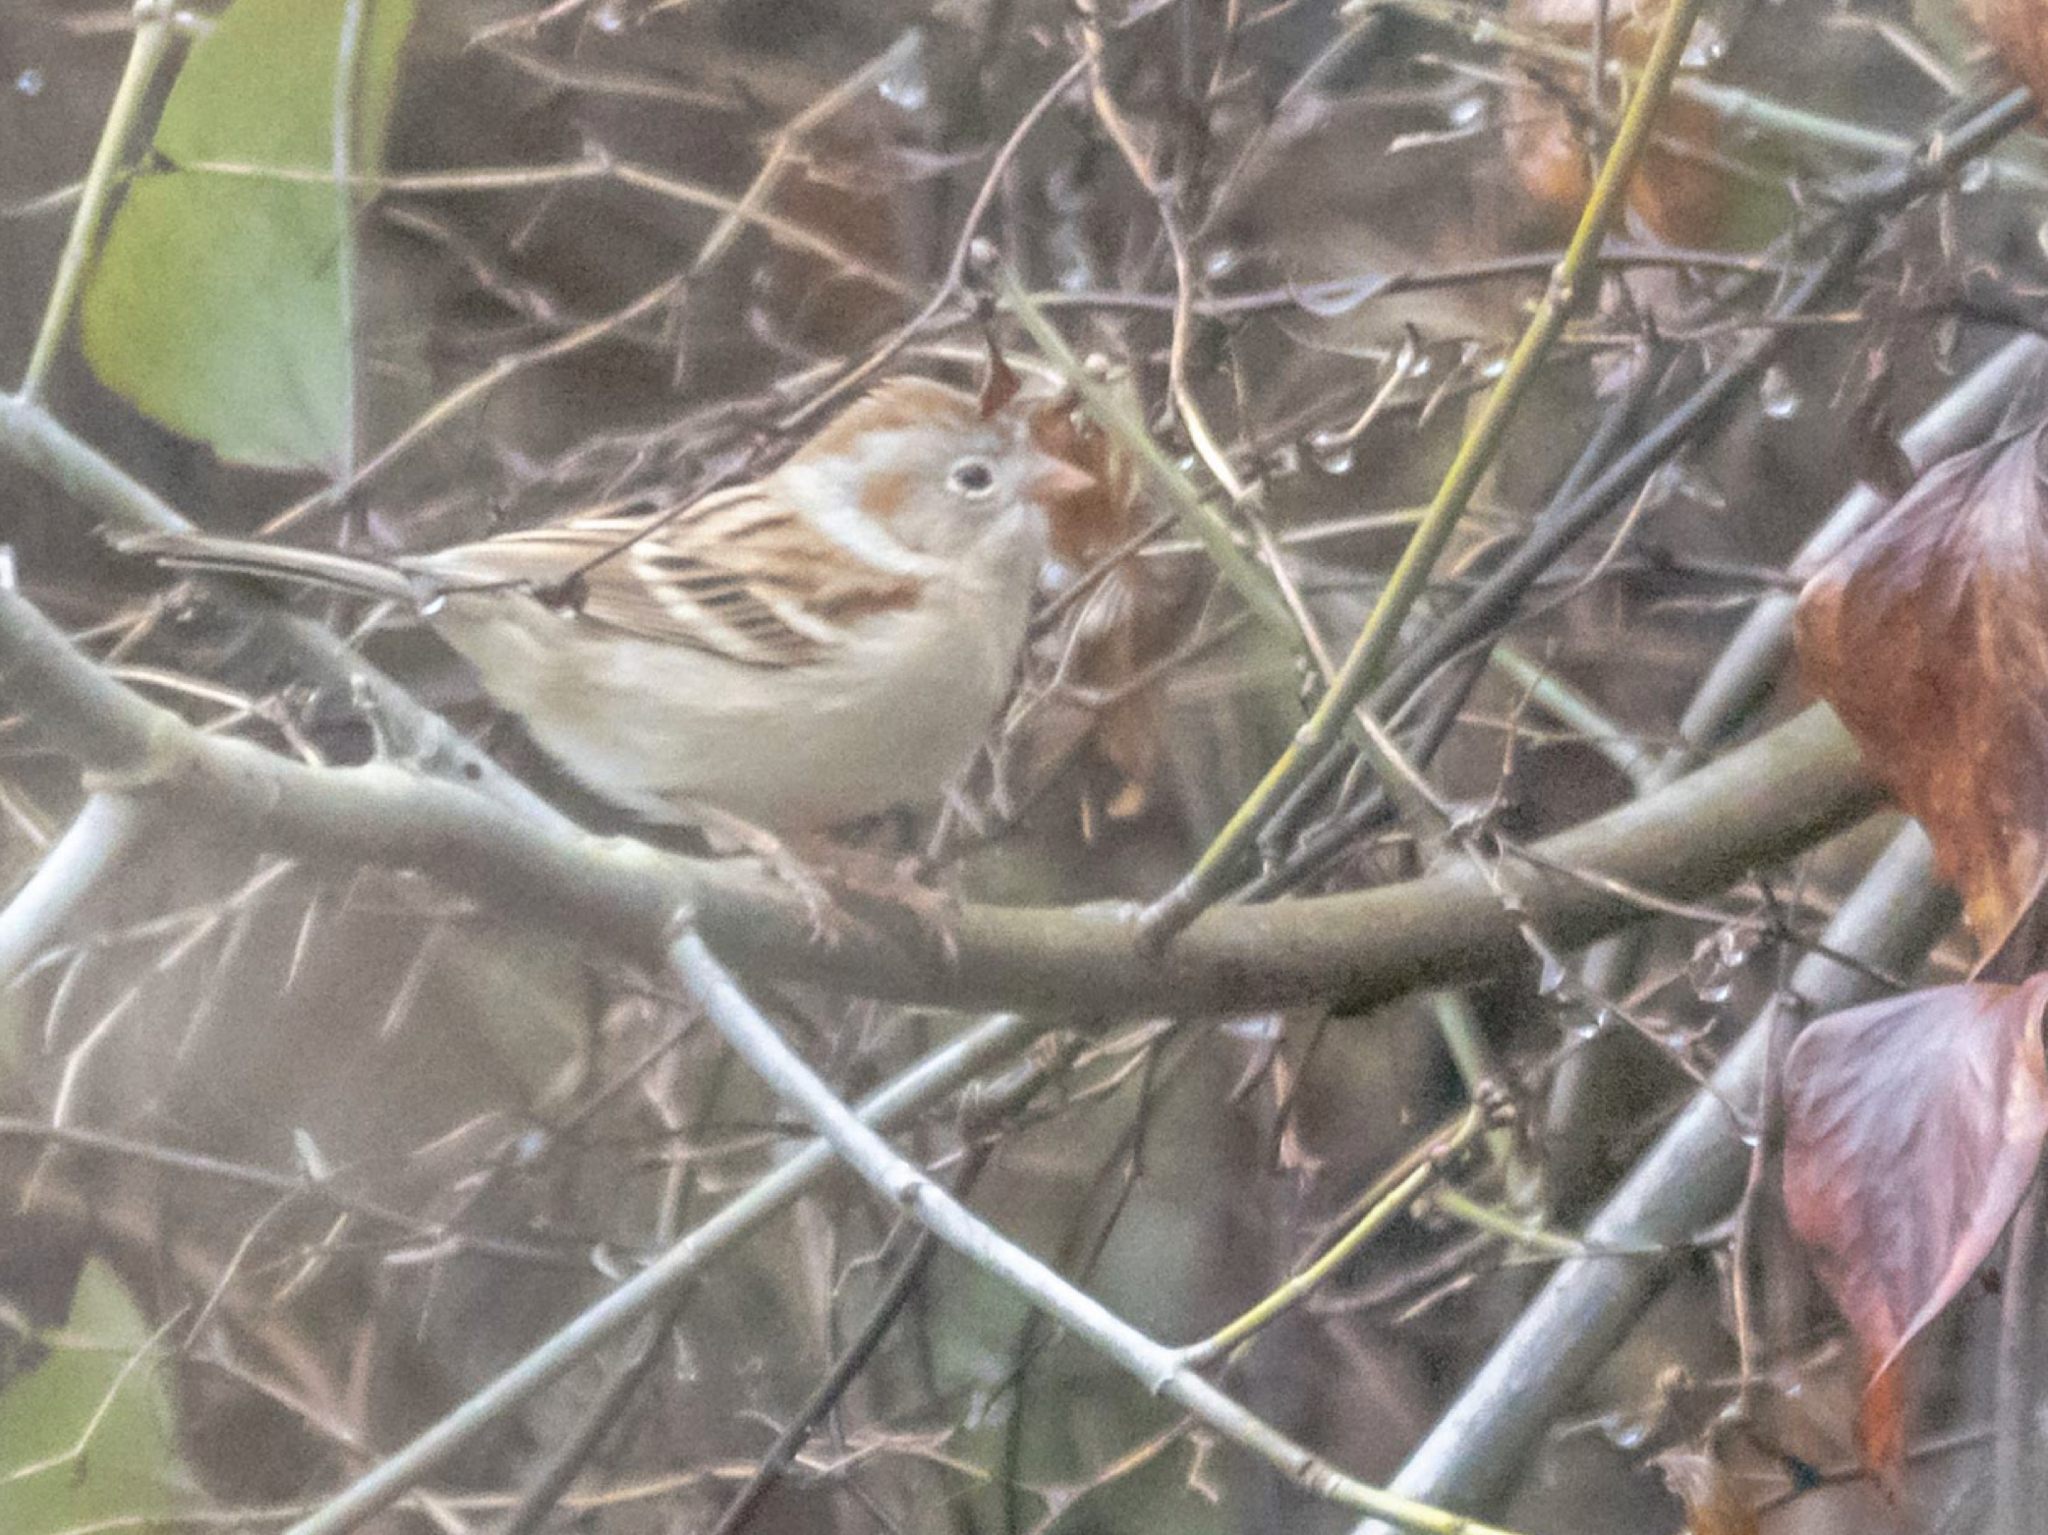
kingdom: Animalia
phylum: Chordata
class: Aves
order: Passeriformes
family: Passerellidae
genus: Spizella
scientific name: Spizella pusilla
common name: Field sparrow
